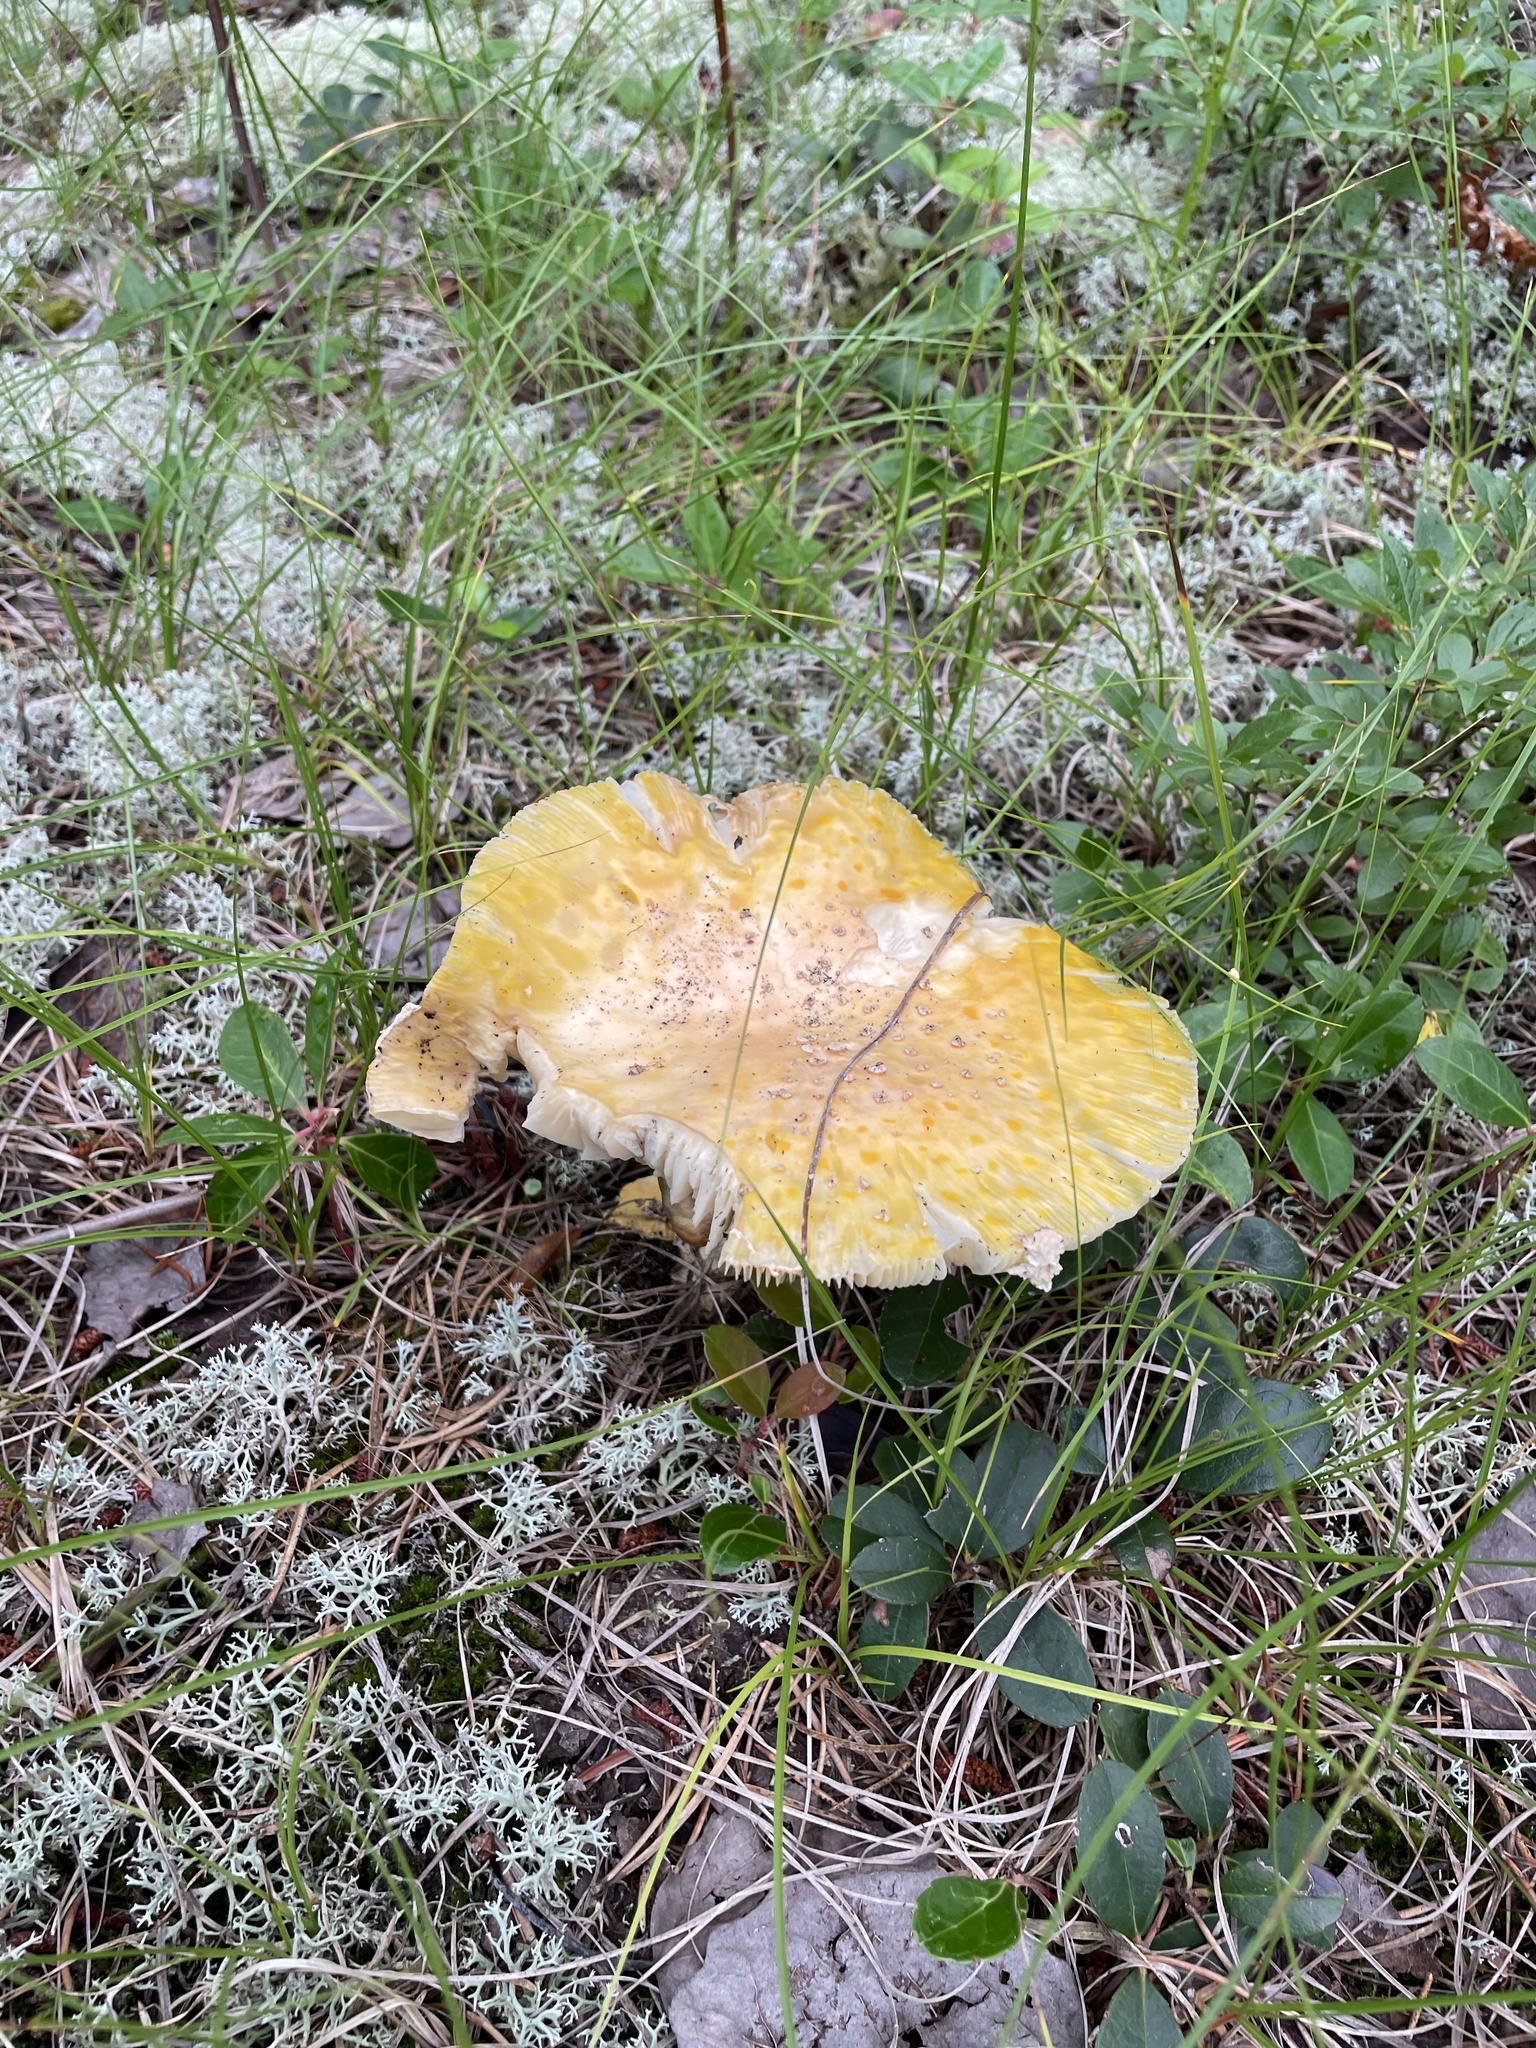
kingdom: Fungi
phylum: Basidiomycota
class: Agaricomycetes
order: Agaricales
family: Amanitaceae
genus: Amanita
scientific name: Amanita muscaria
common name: Fly agaric
